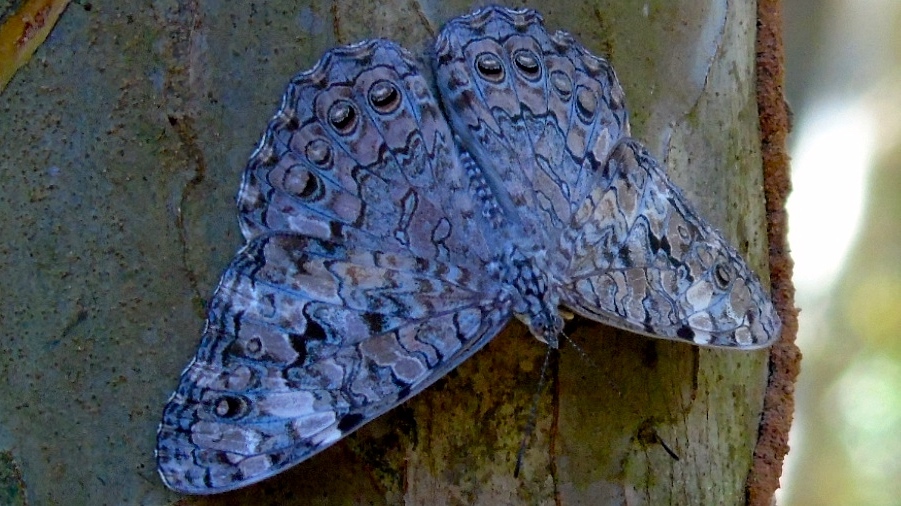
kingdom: Animalia
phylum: Arthropoda
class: Insecta
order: Lepidoptera
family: Nymphalidae
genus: Hamadryas
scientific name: Hamadryas februa
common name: Gray cracker
